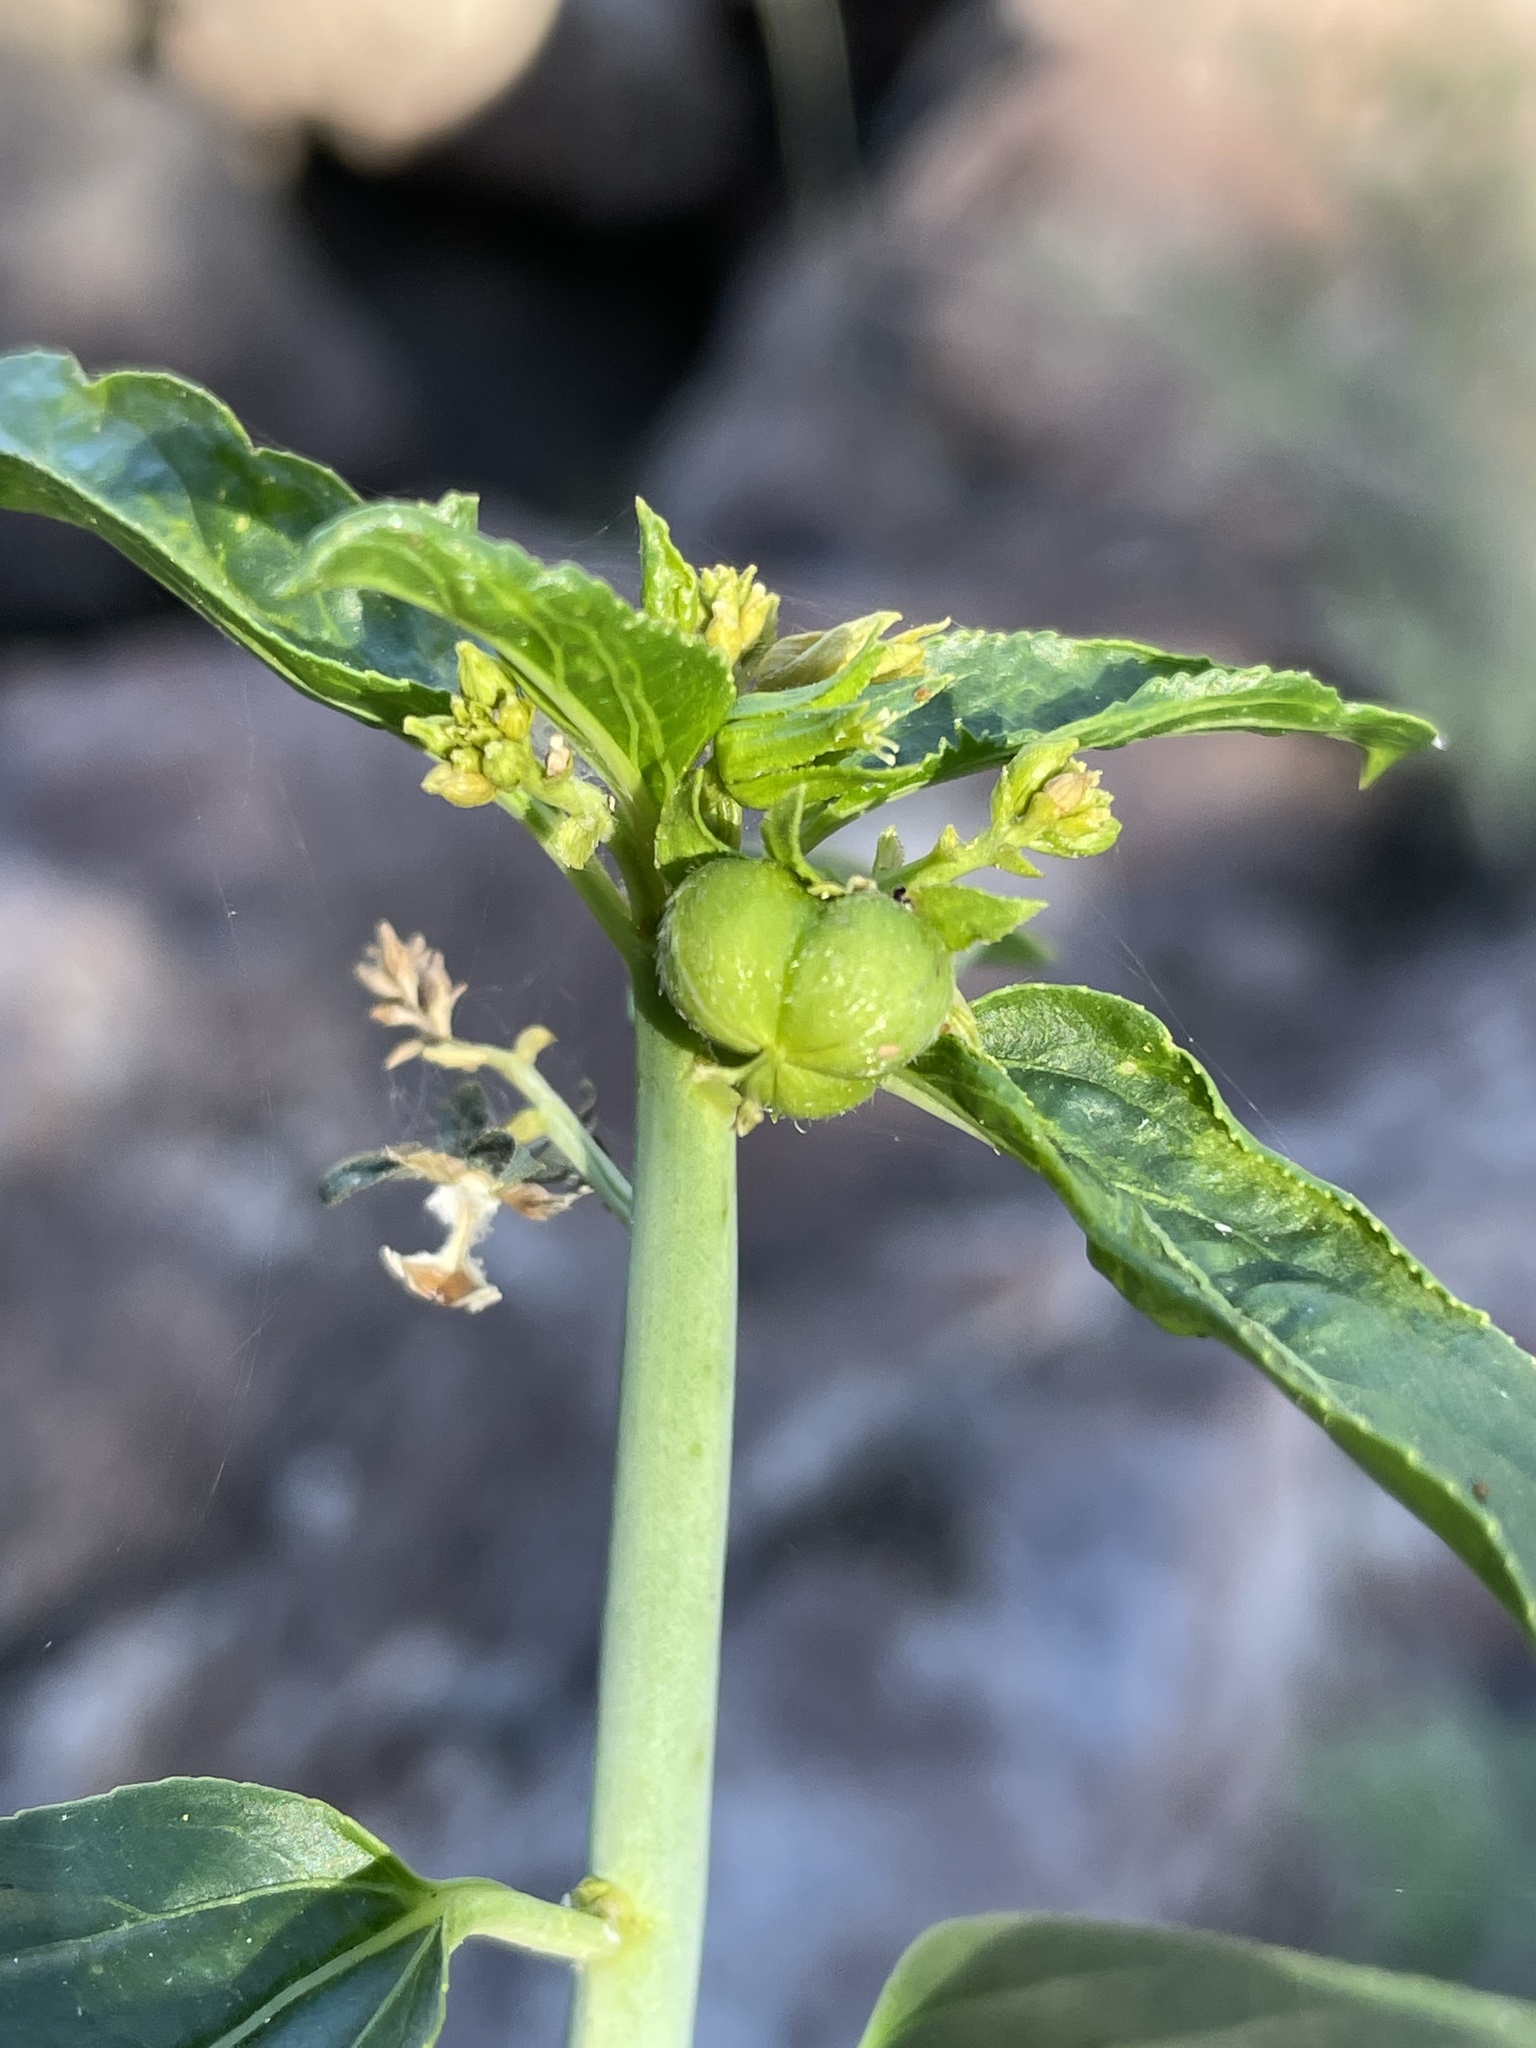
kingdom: Plantae
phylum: Tracheophyta
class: Magnoliopsida
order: Malpighiales
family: Euphorbiaceae
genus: Ditaxis
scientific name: Ditaxis brandegeei
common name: Sonoran silverbush
